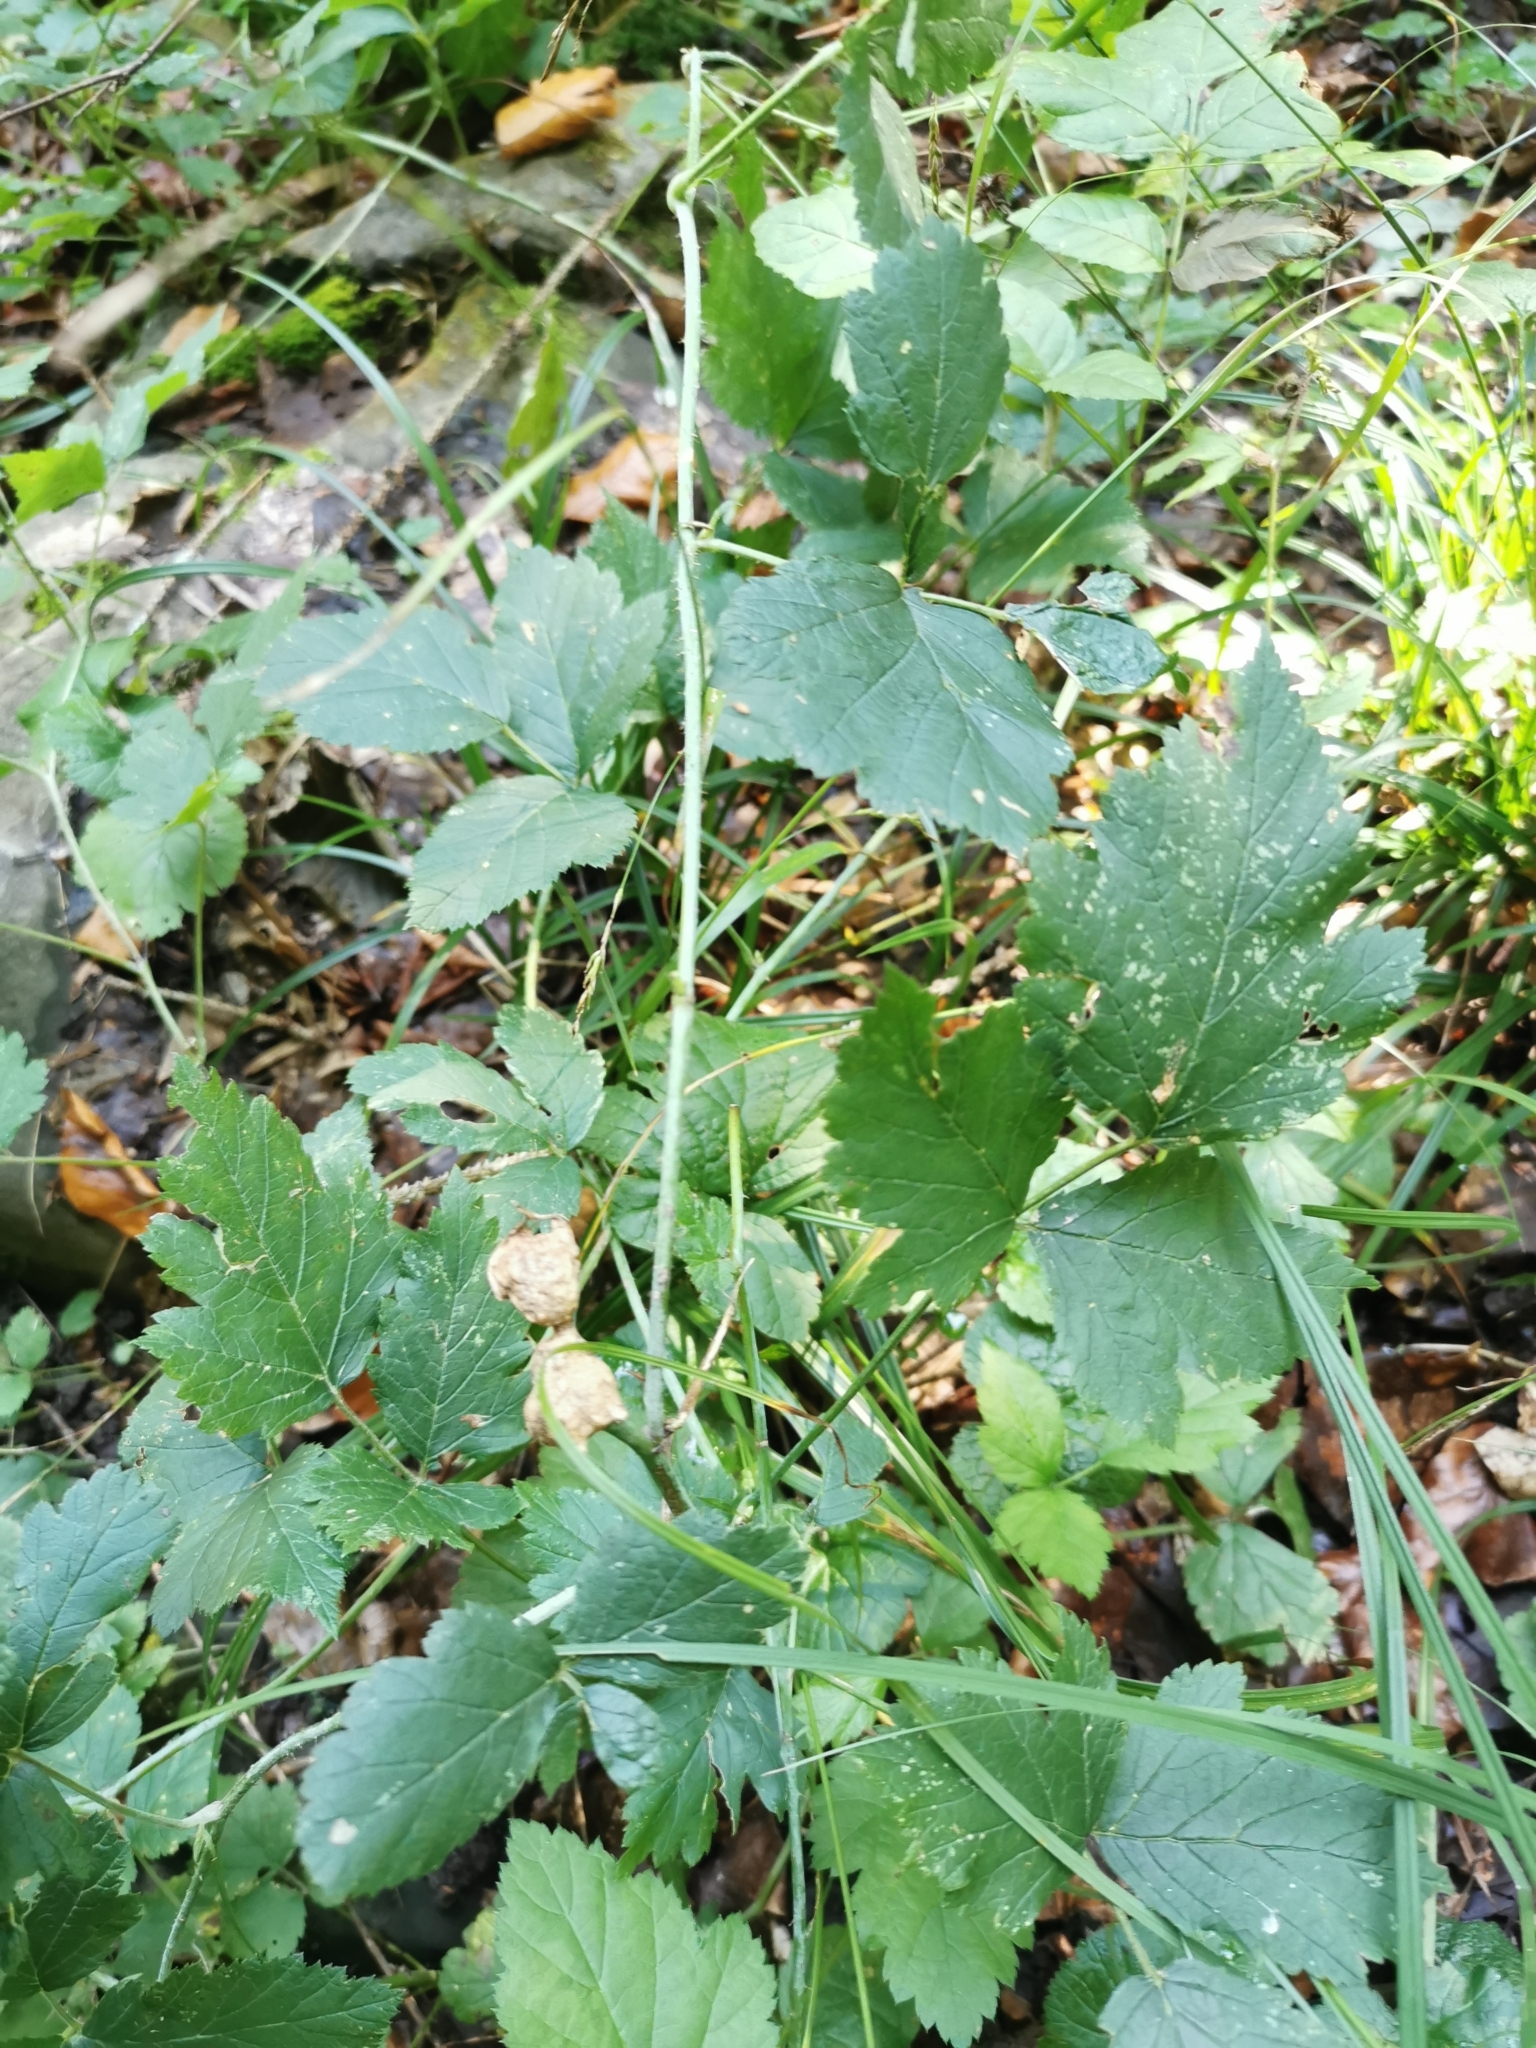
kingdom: Animalia
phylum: Arthropoda
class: Insecta
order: Diptera
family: Cecidomyiidae
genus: Lasioptera
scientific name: Lasioptera rubi
